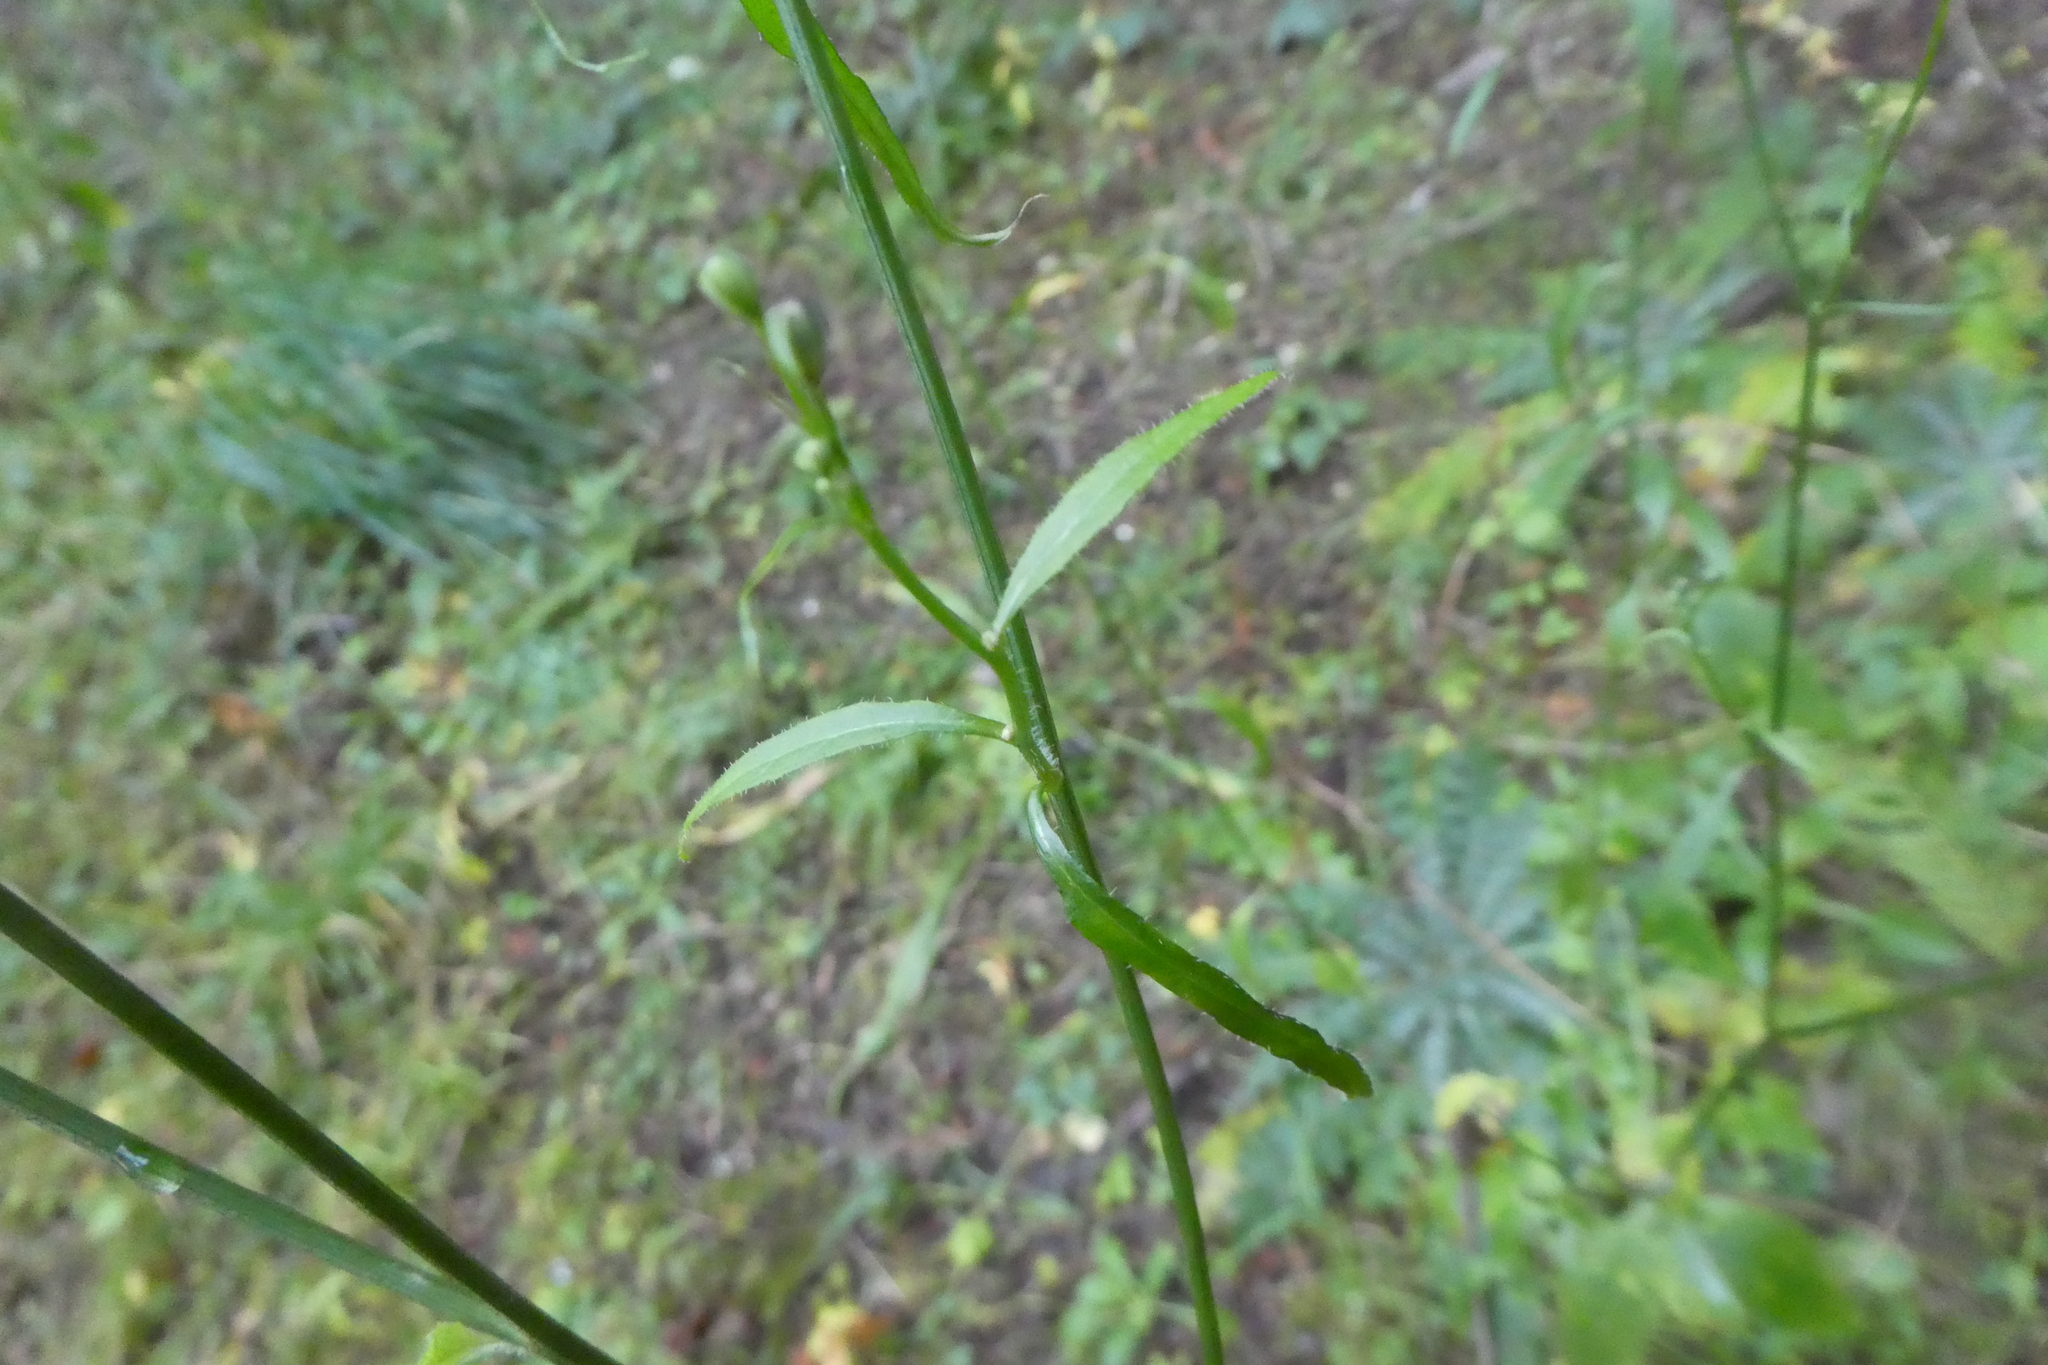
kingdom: Plantae
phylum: Tracheophyta
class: Magnoliopsida
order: Asterales
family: Asteraceae
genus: Lapsana
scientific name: Lapsana communis
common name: Nipplewort
